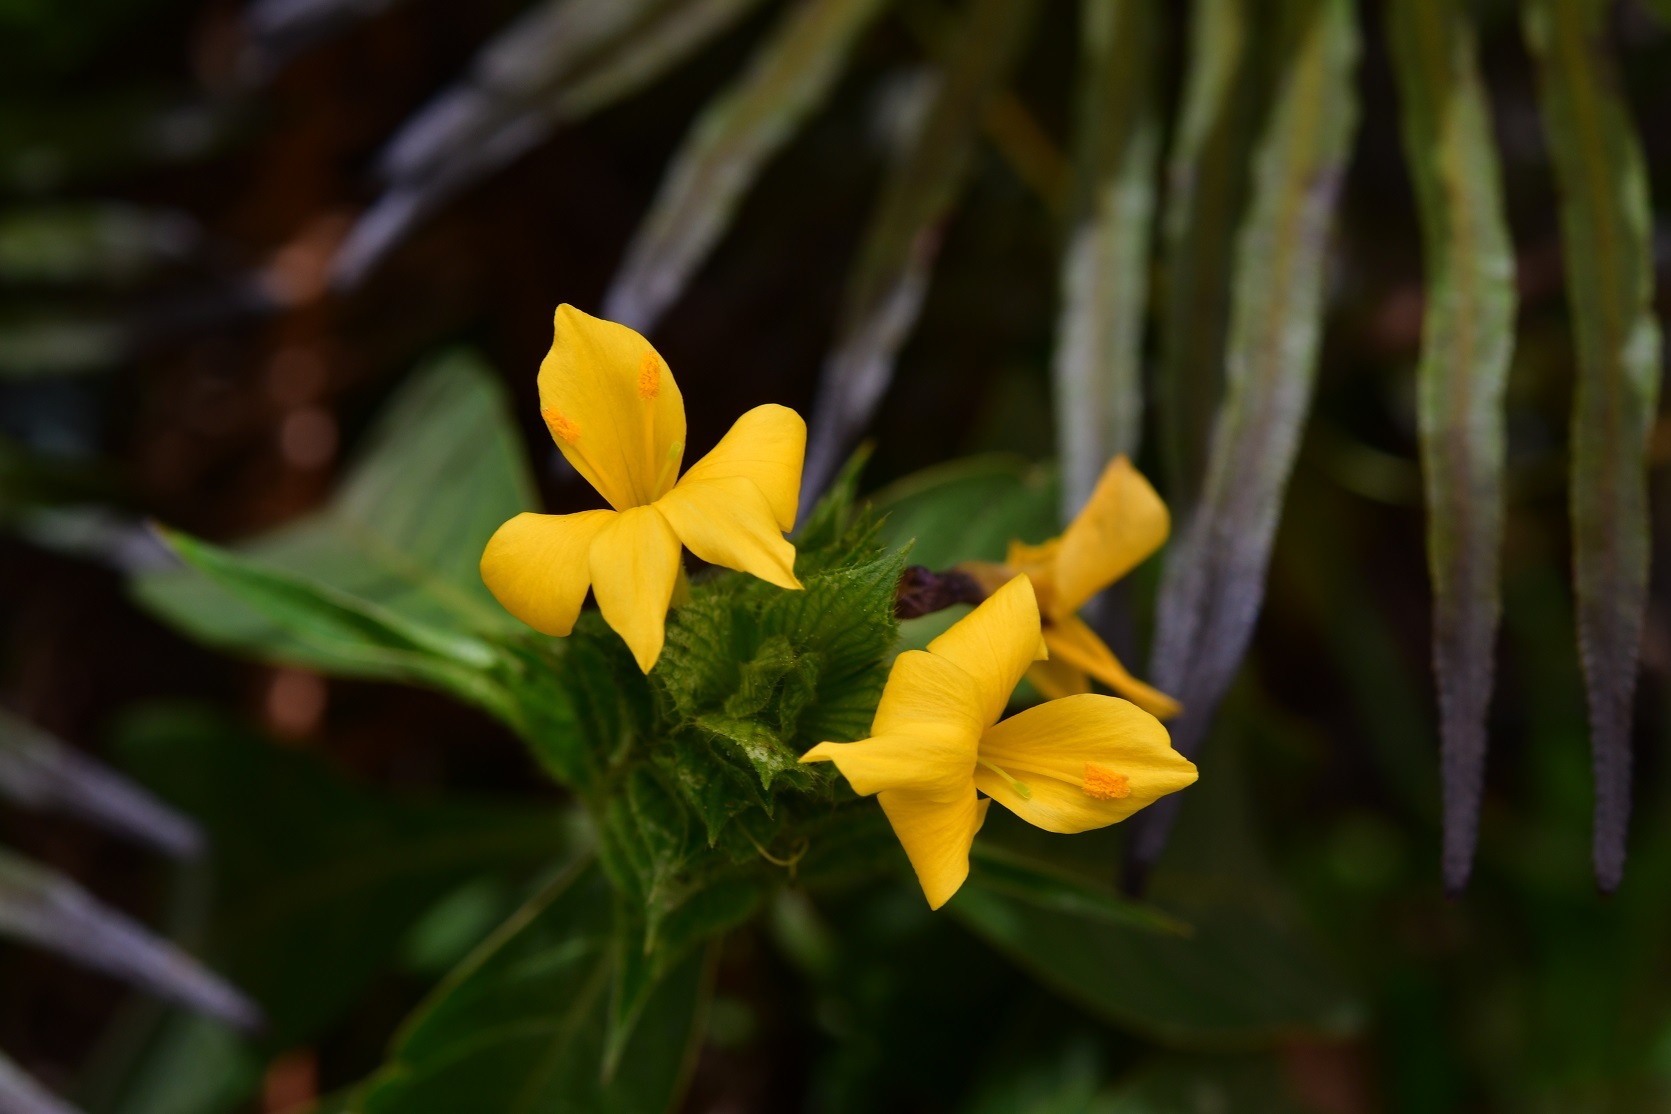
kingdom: Plantae
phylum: Tracheophyta
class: Magnoliopsida
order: Lamiales
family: Acanthaceae
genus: Barleria
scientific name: Barleria oenotheroides
